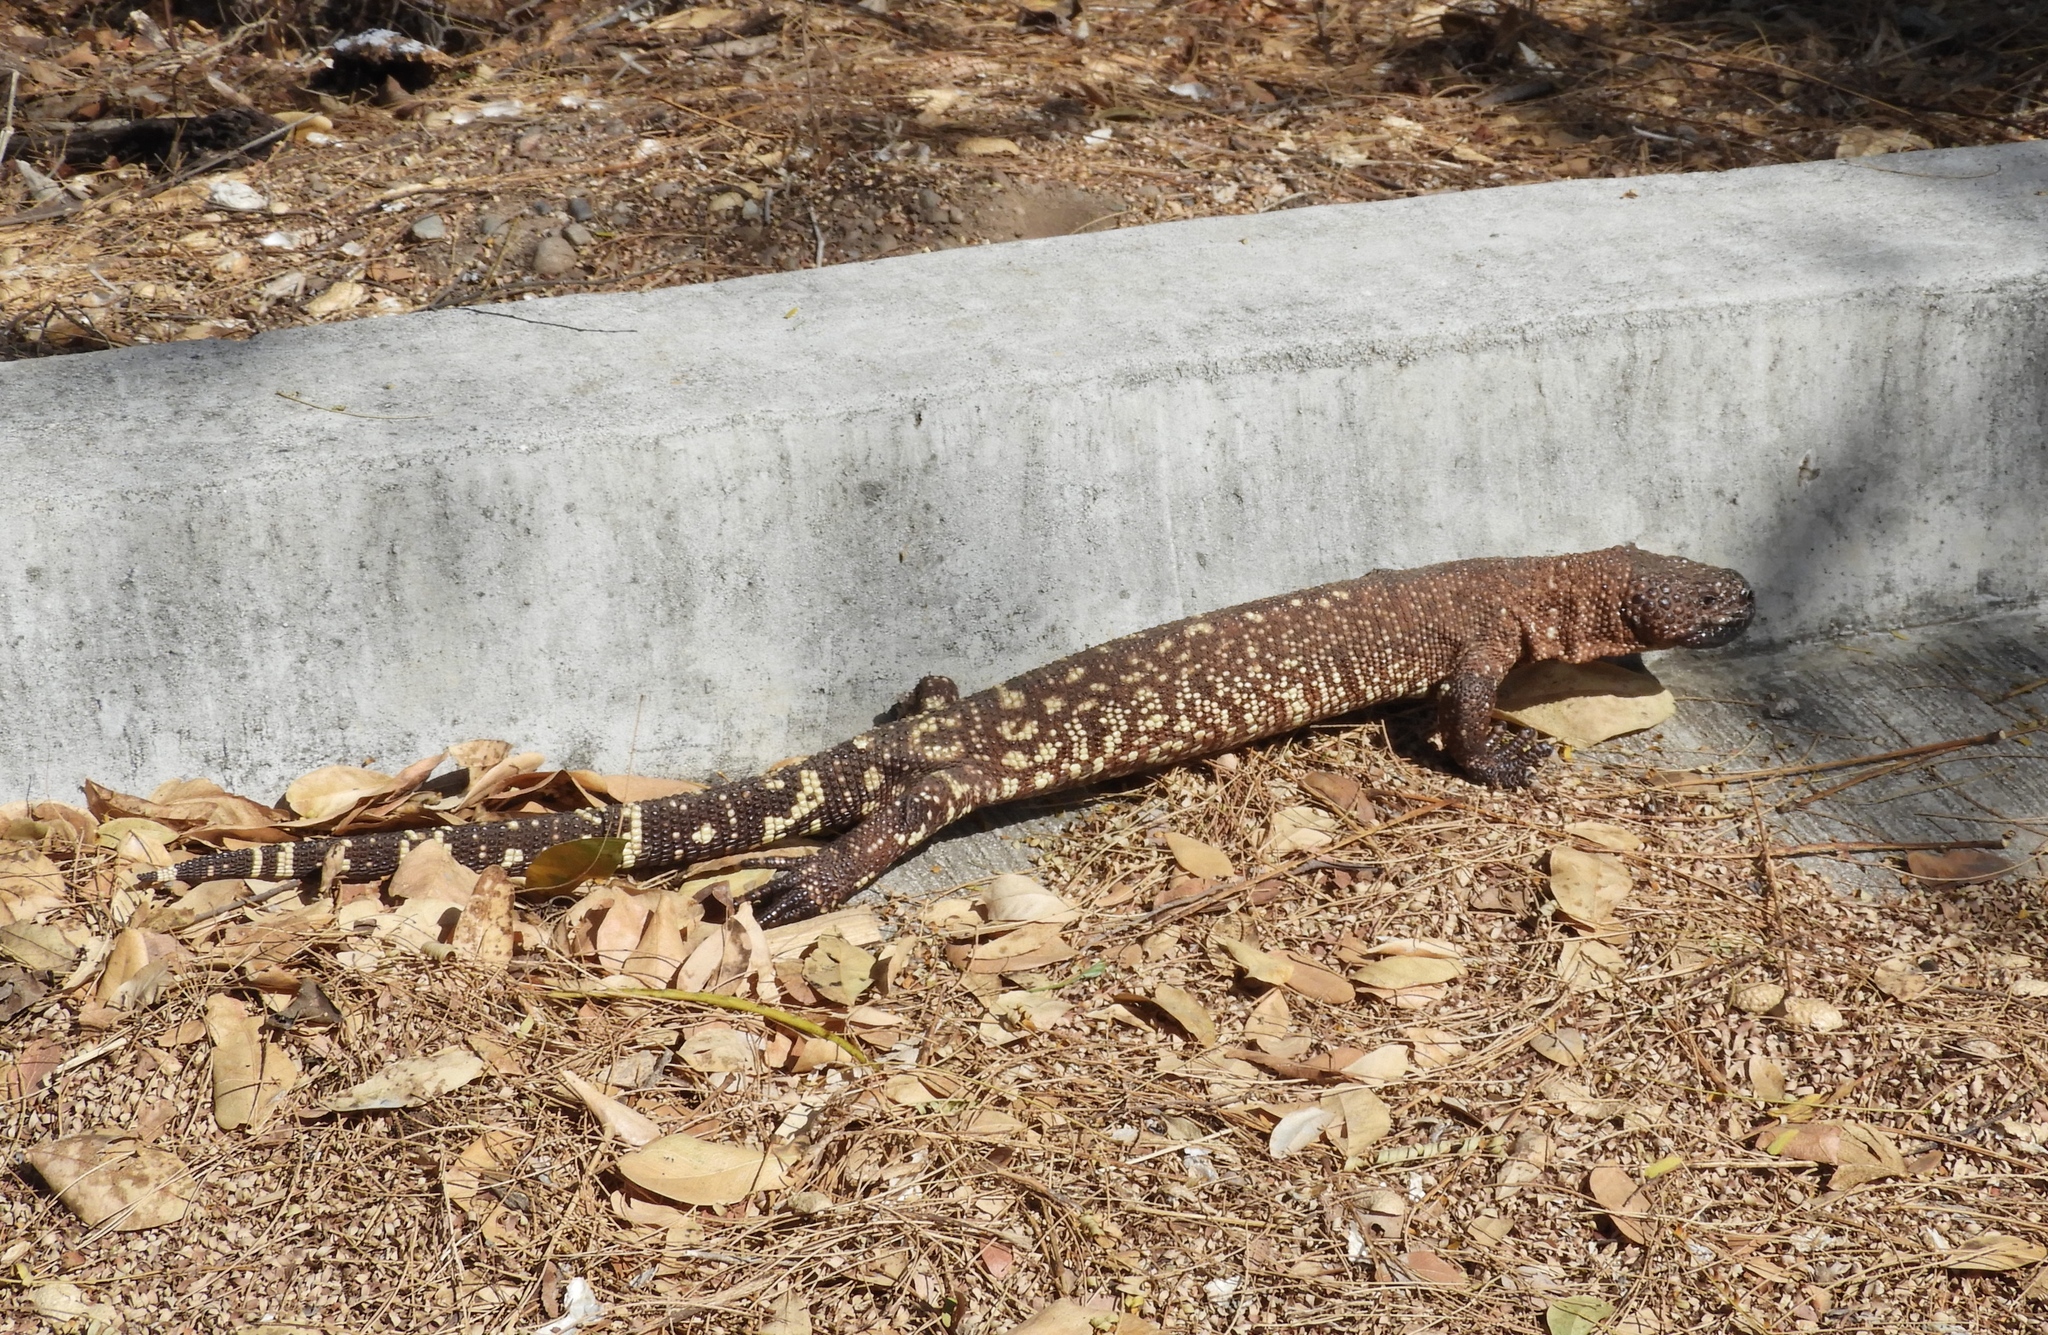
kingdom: Animalia
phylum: Chordata
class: Squamata
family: Helodermatidae
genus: Heloderma
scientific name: Heloderma horridum
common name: Mexican beaded lizard
